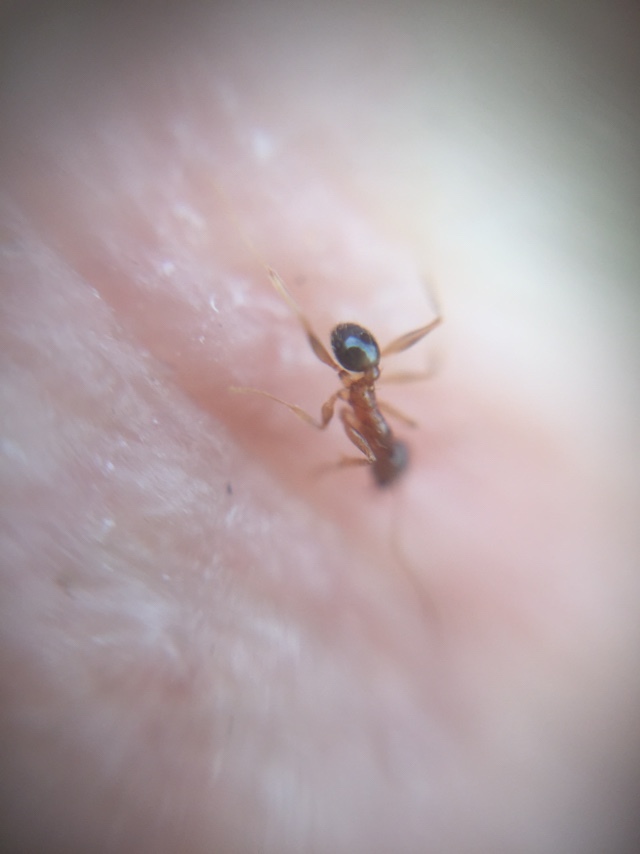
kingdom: Animalia
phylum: Arthropoda
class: Insecta
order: Hymenoptera
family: Formicidae
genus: Pheidole
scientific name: Pheidole indica
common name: Big-headed ant
